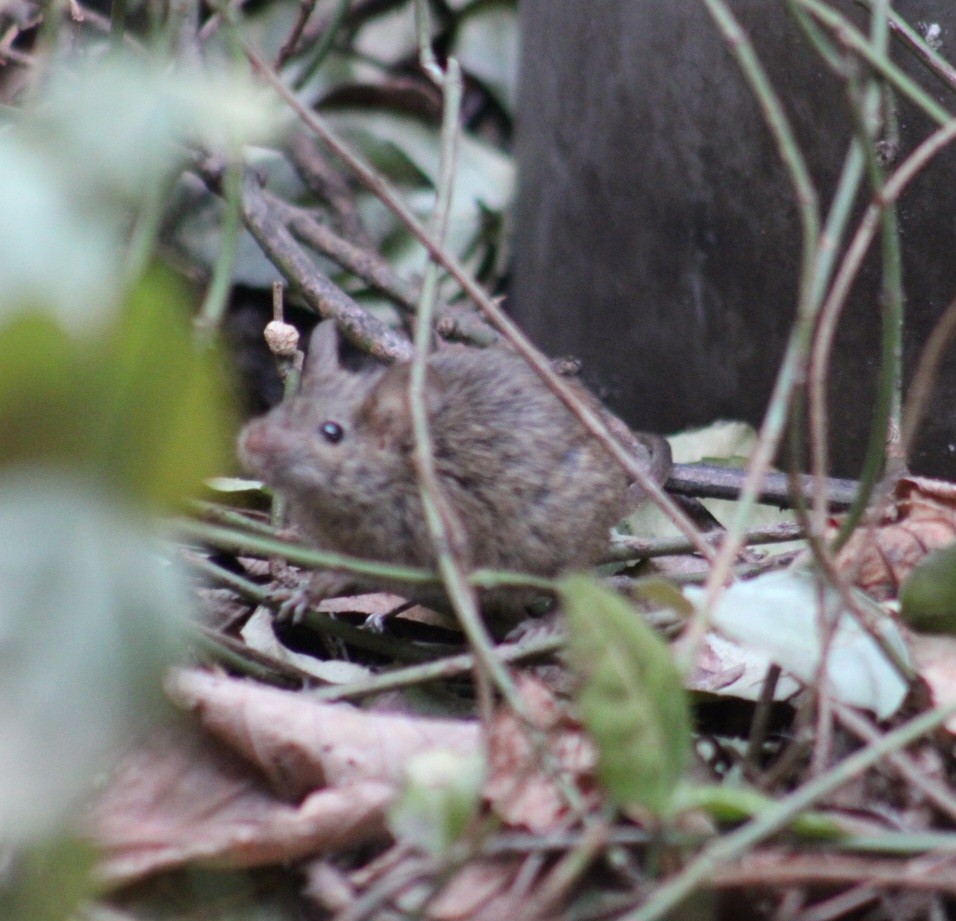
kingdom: Animalia
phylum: Chordata
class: Mammalia
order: Rodentia
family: Muridae
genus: Mus
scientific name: Mus musculus
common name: House mouse
